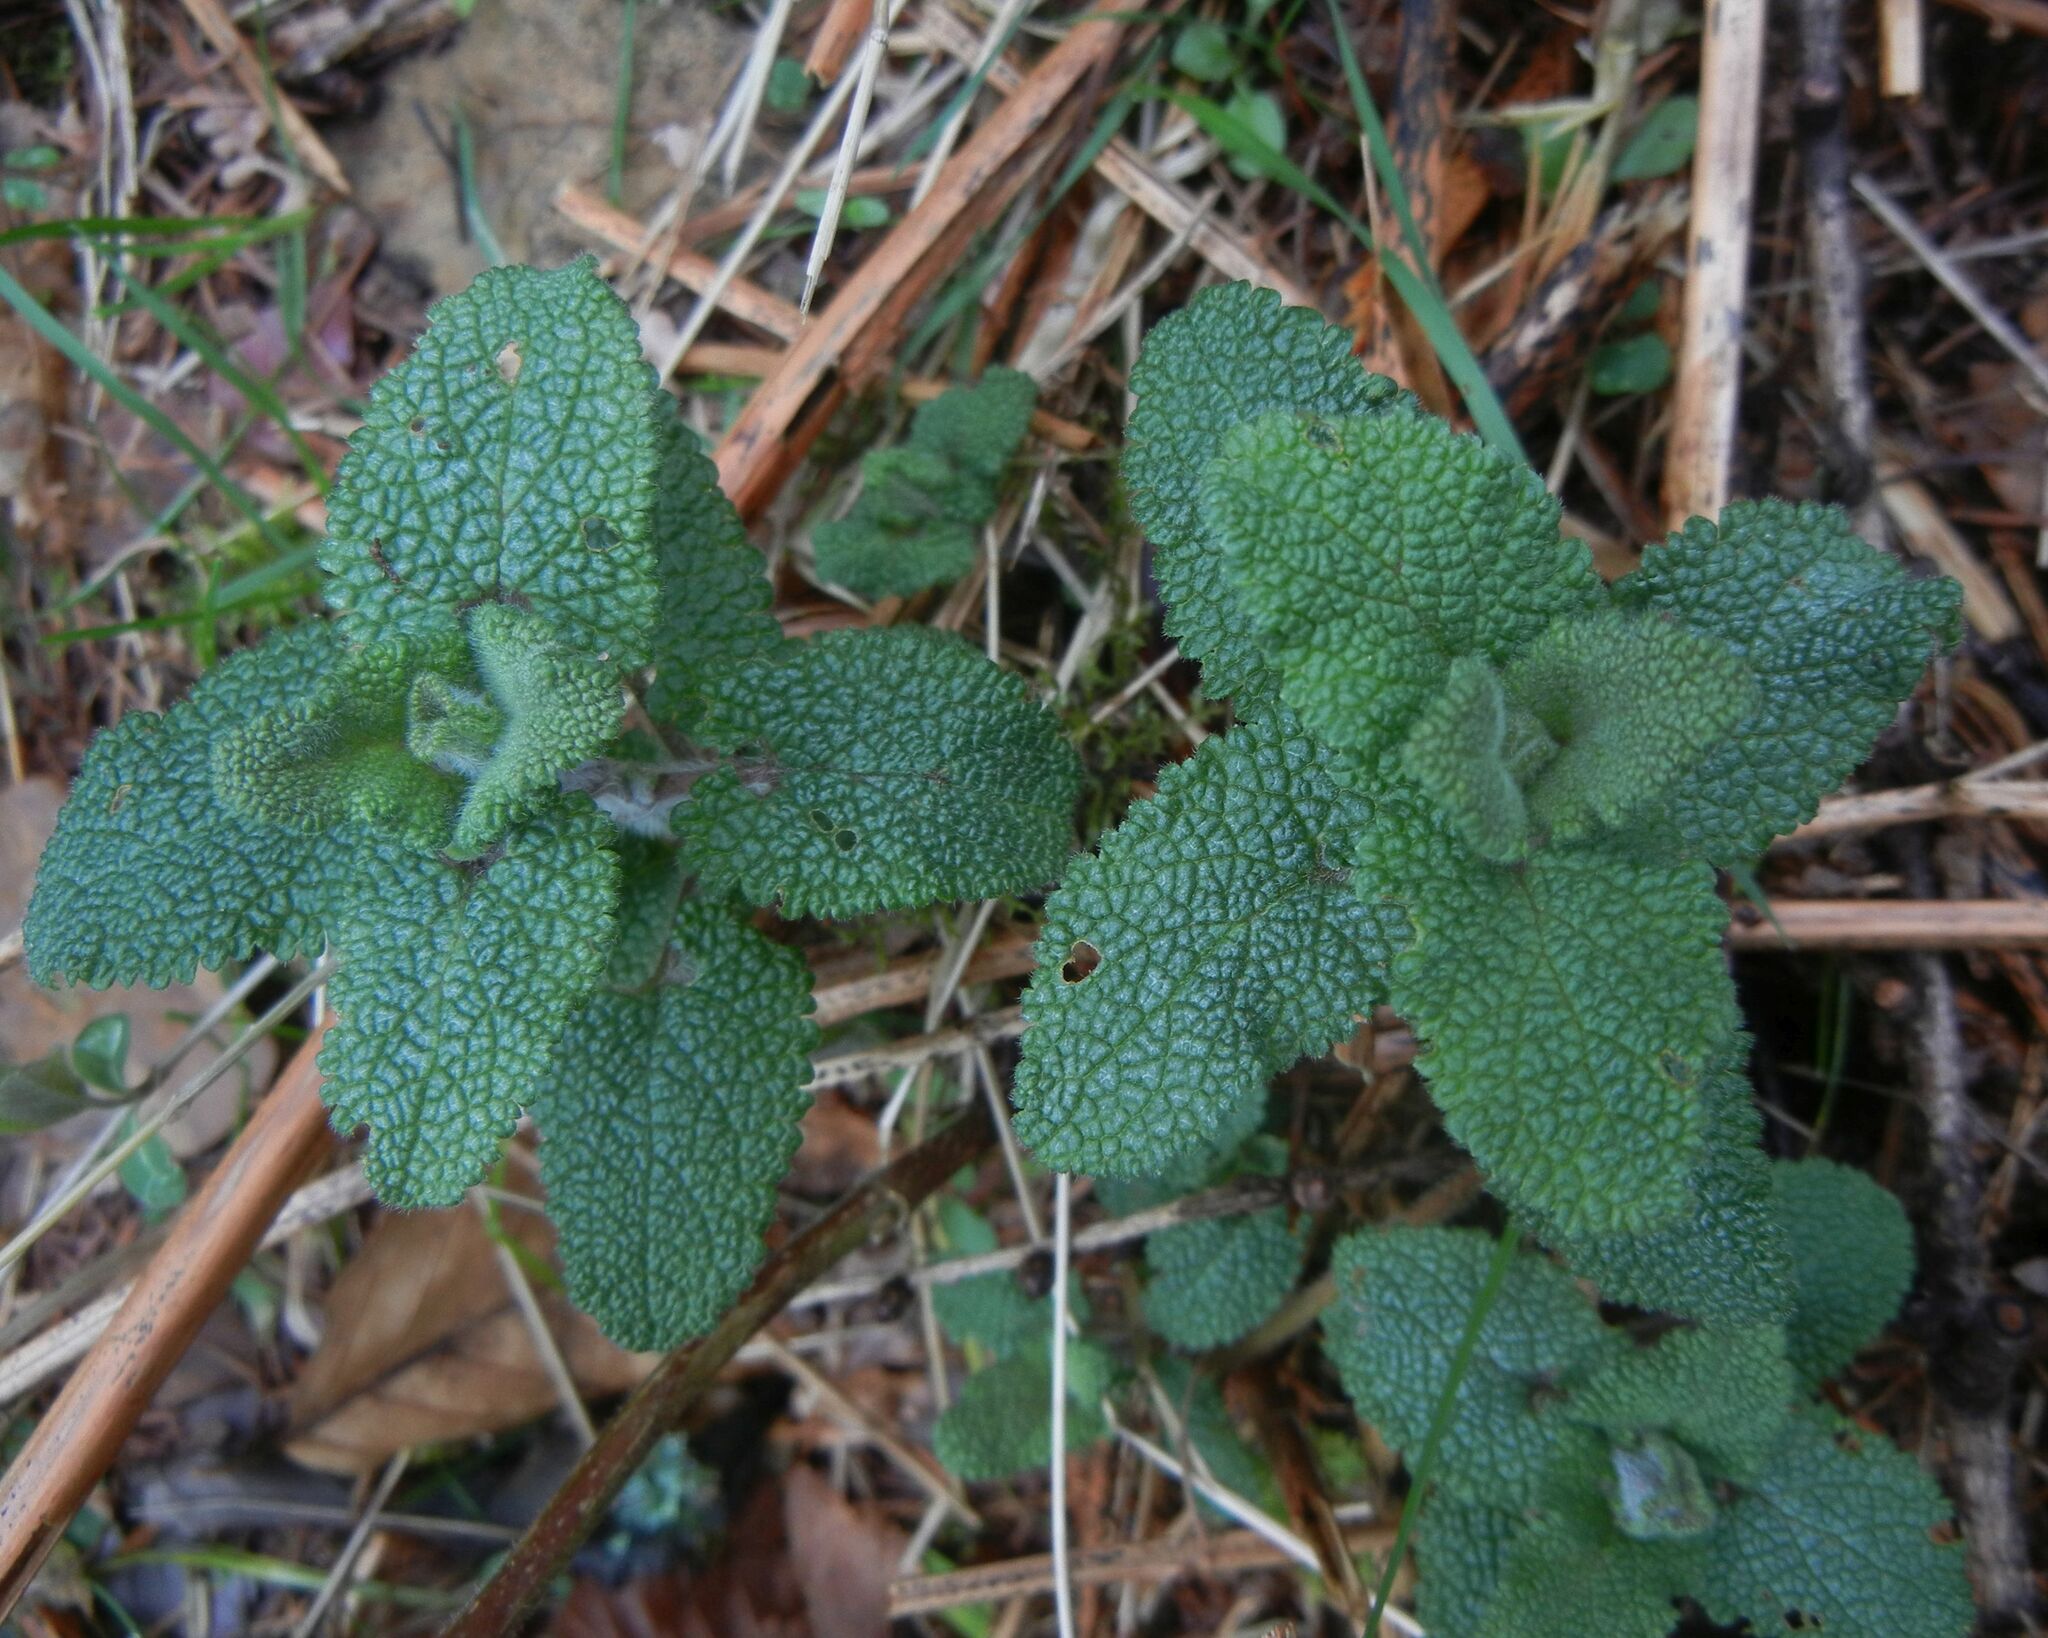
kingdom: Plantae
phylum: Tracheophyta
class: Magnoliopsida
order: Lamiales
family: Lamiaceae
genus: Teucrium
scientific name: Teucrium scorodonia
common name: Woodland germander
